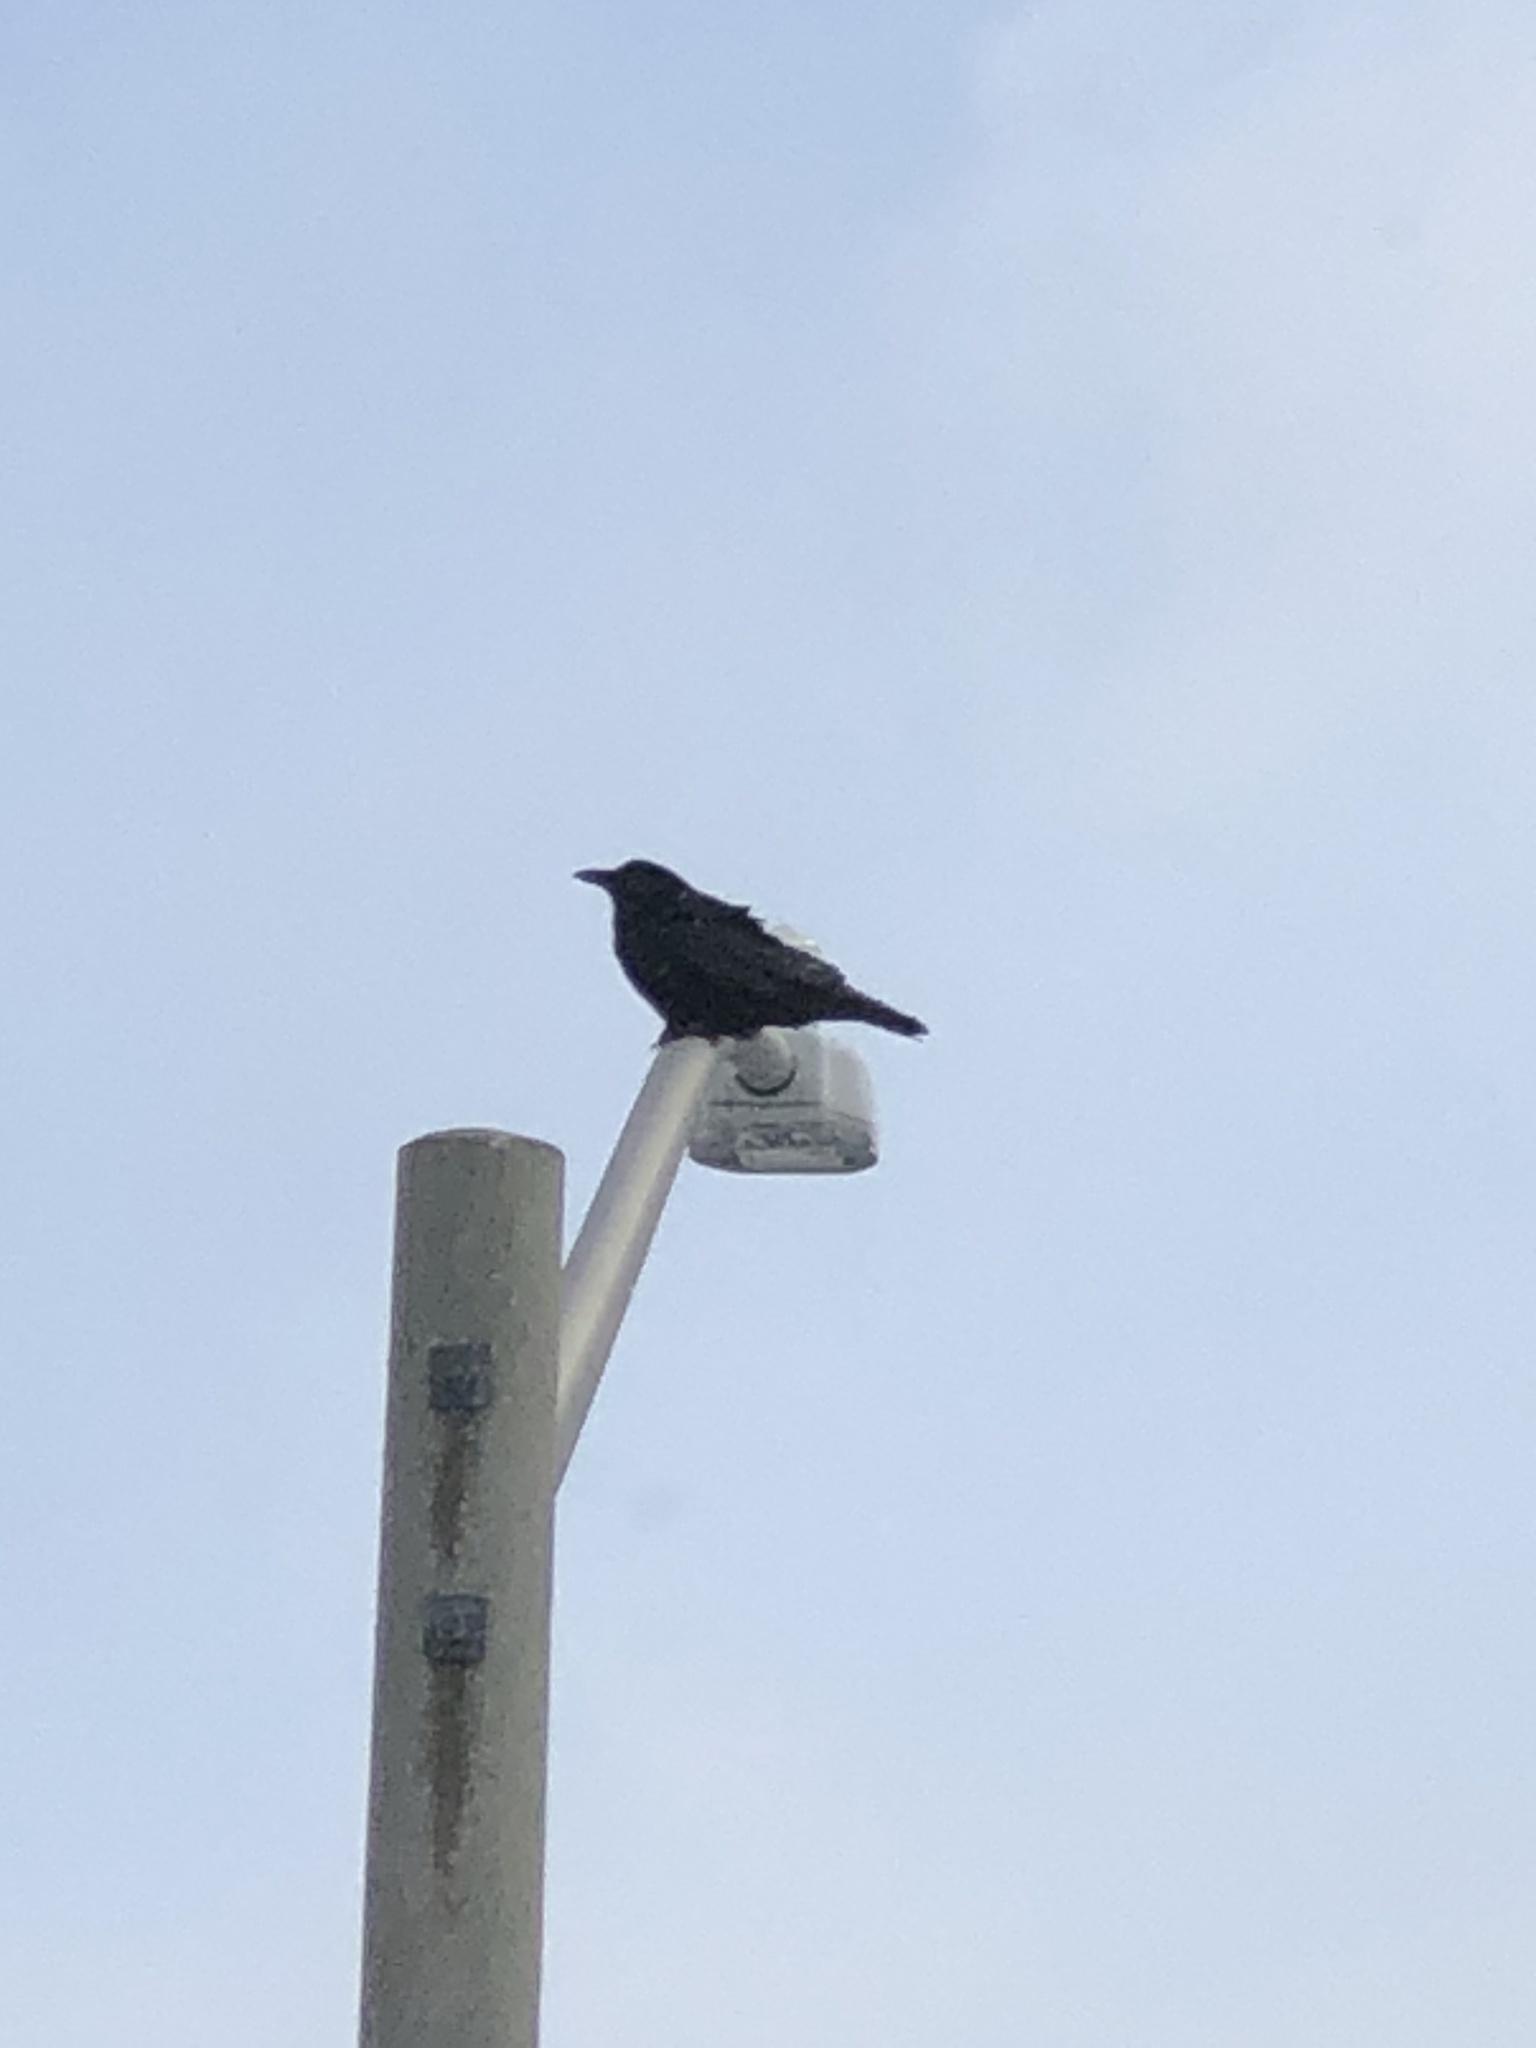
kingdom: Animalia
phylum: Chordata
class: Aves
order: Passeriformes
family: Corvidae
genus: Corvus
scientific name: Corvus brachyrhynchos
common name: American crow
